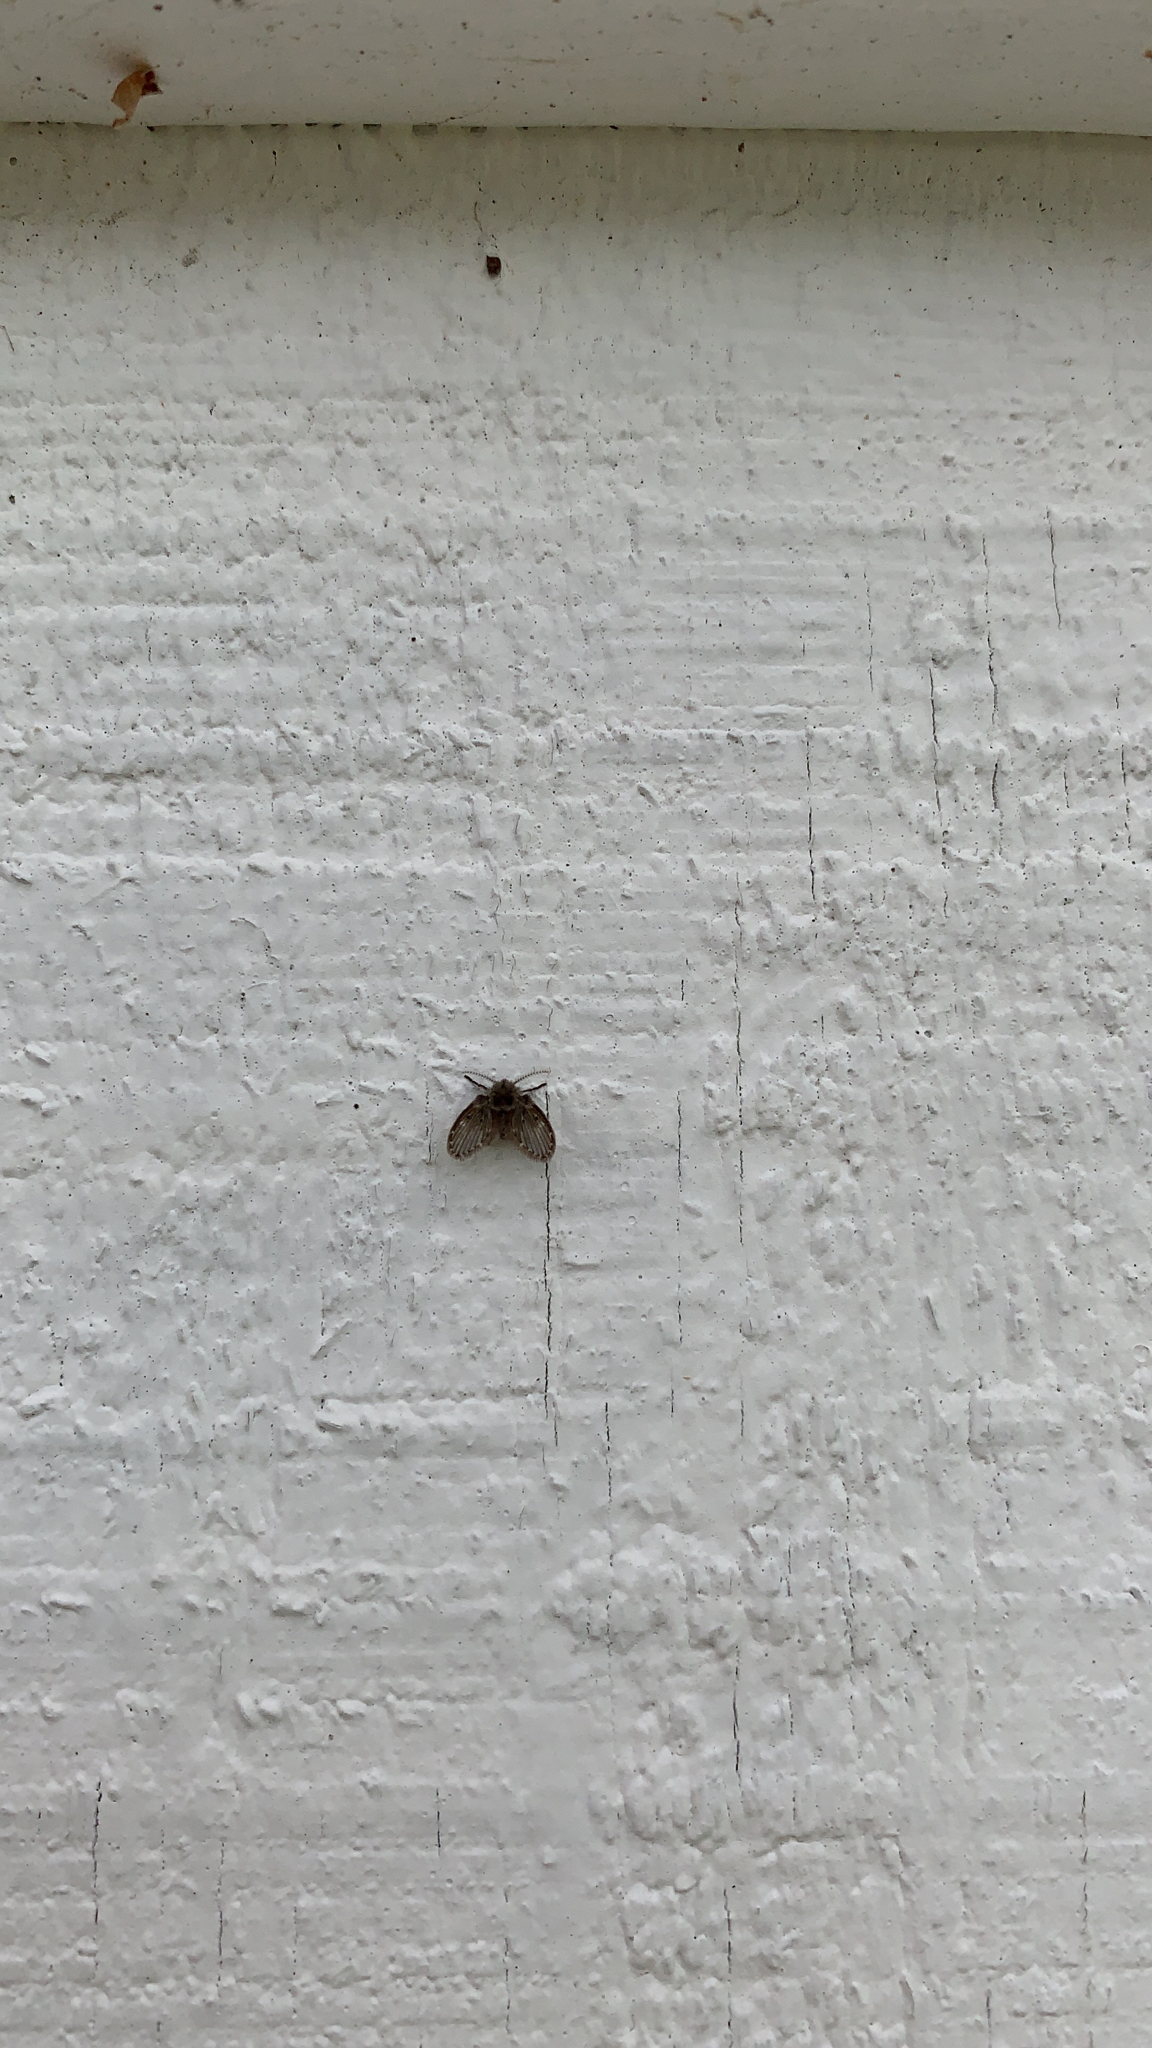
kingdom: Animalia
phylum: Arthropoda
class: Insecta
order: Diptera
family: Psychodidae
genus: Clogmia
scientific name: Clogmia albipunctatus
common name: White-spotted moth fly
